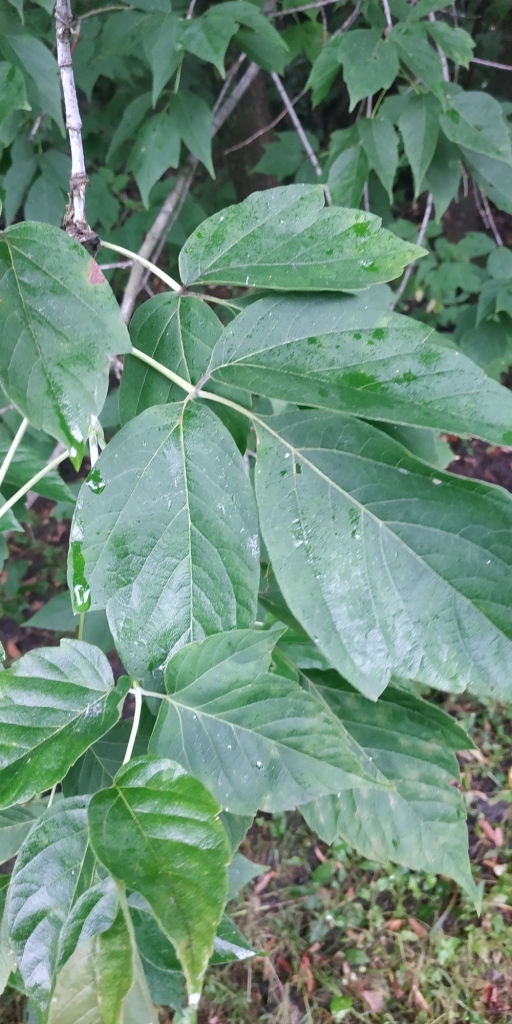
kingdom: Plantae
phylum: Tracheophyta
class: Magnoliopsida
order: Sapindales
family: Sapindaceae
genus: Acer
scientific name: Acer negundo
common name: Ashleaf maple
